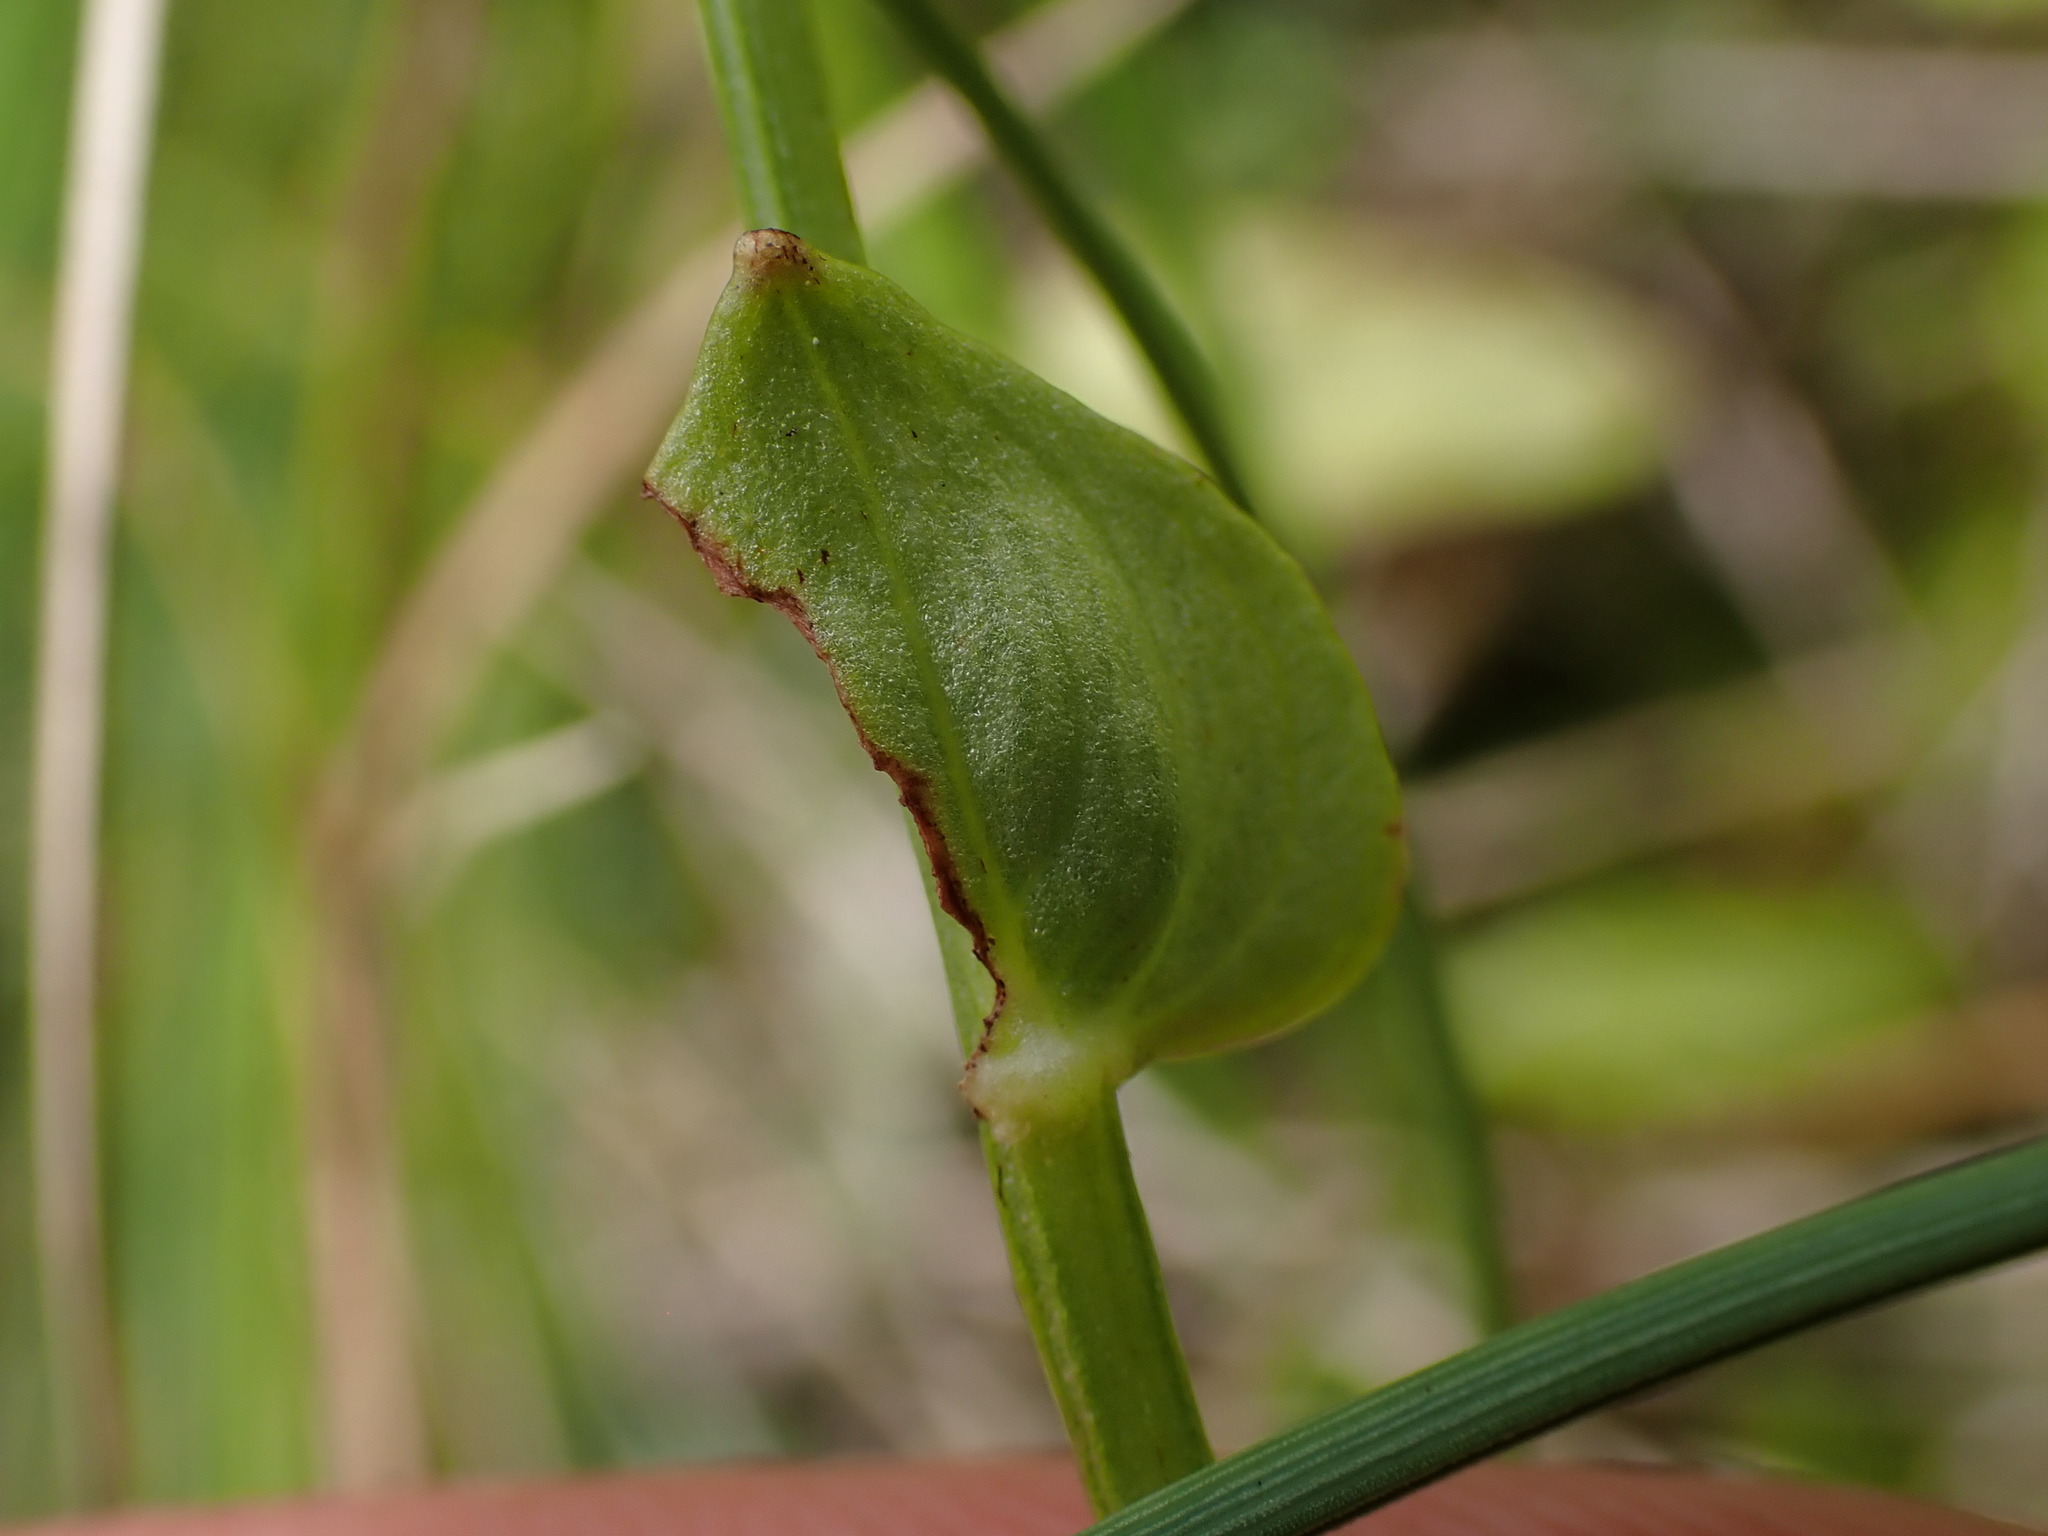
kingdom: Plantae
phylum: Tracheophyta
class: Magnoliopsida
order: Celastrales
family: Parnassiaceae
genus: Parnassia
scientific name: Parnassia fimbriata
